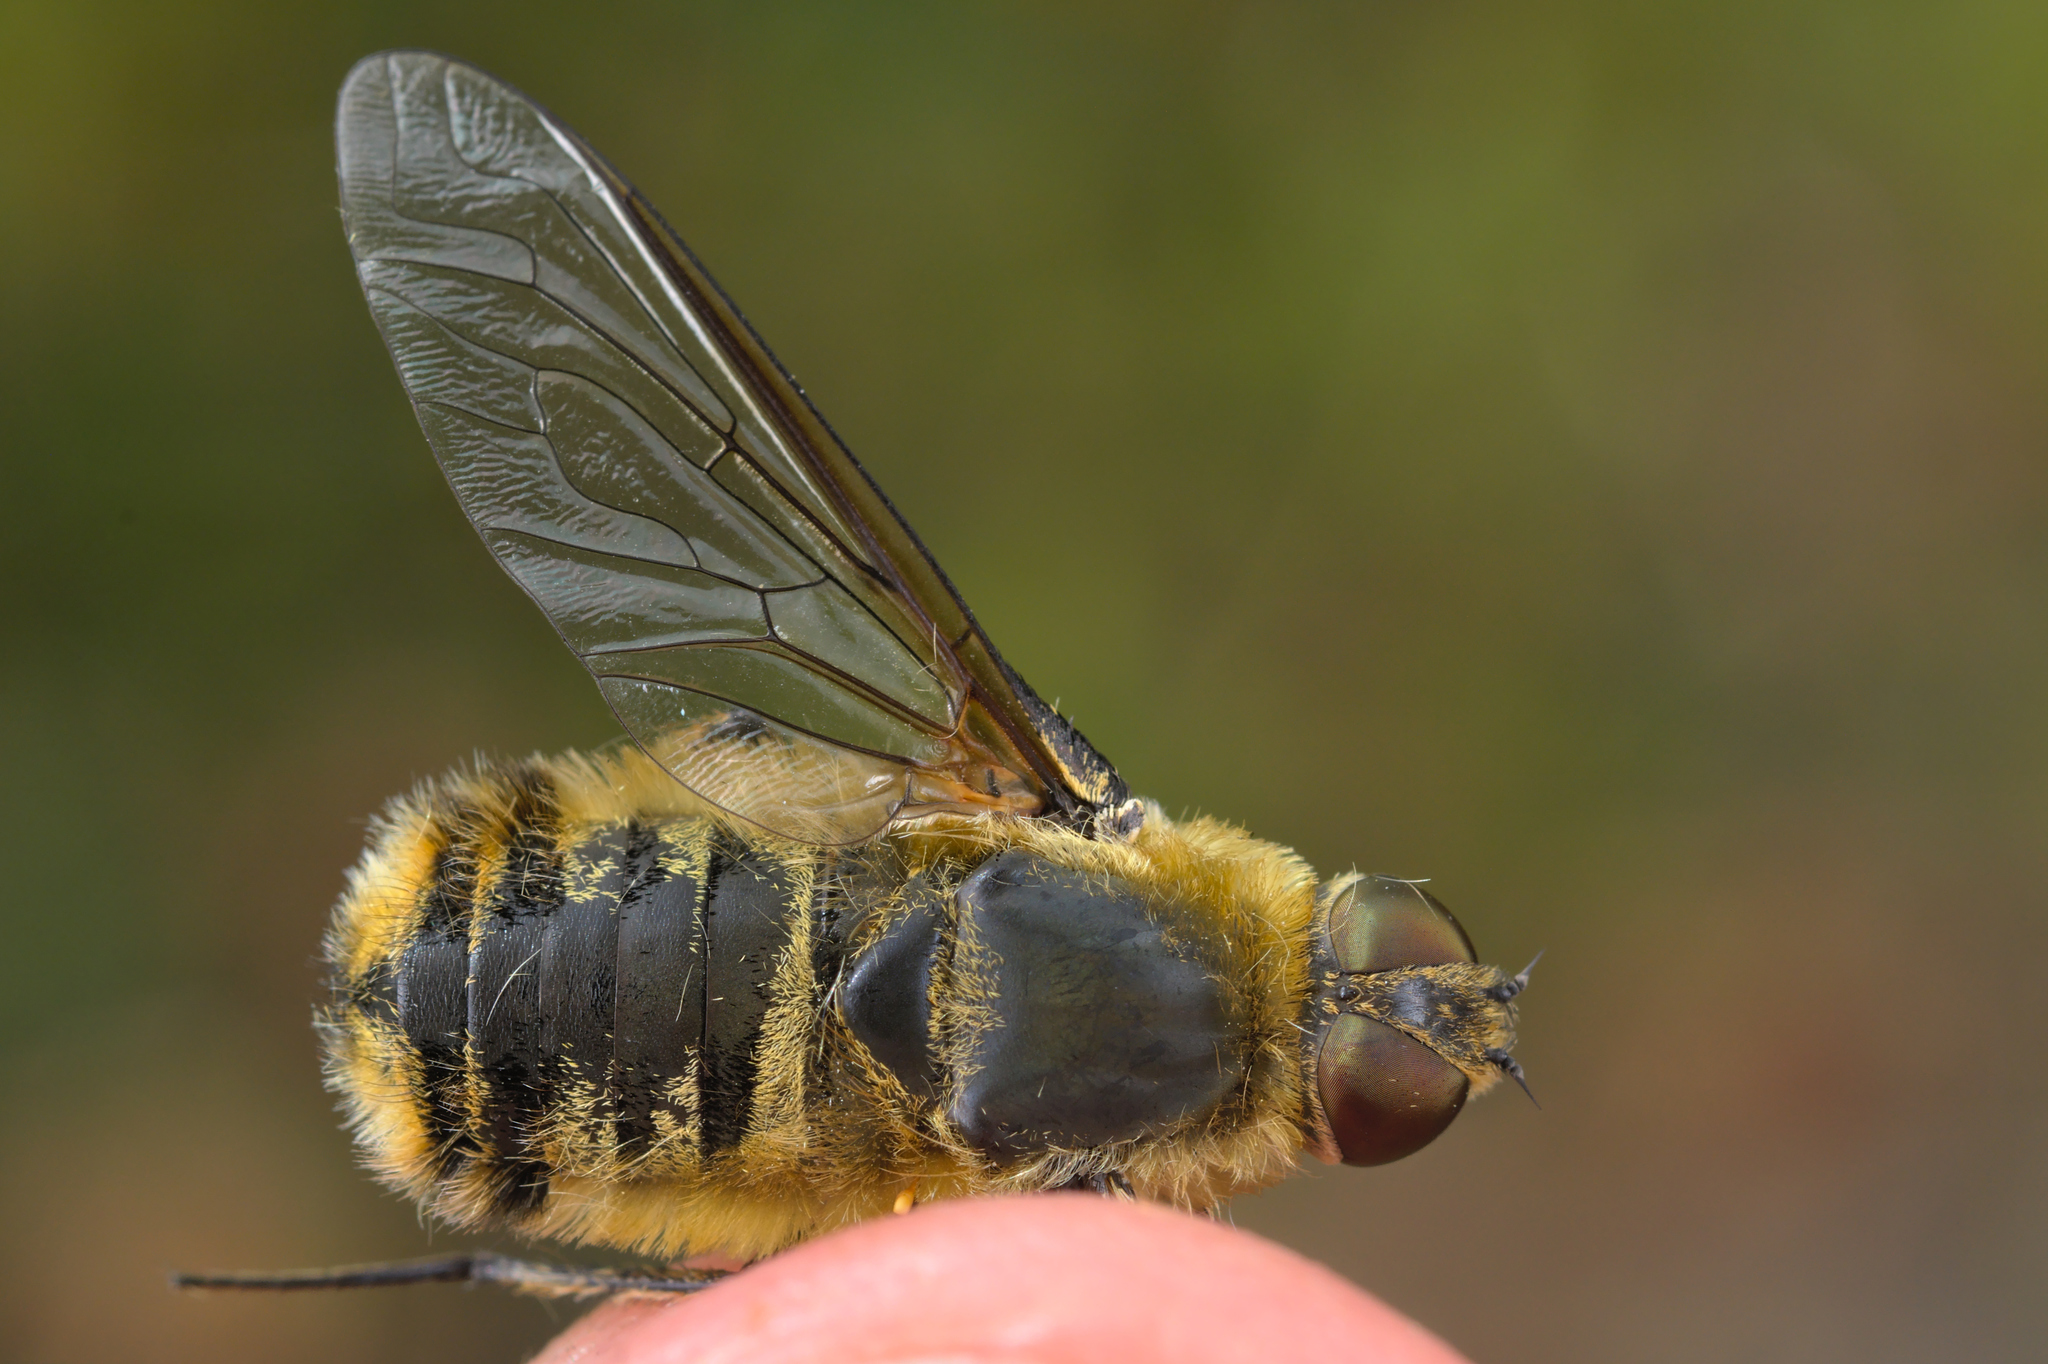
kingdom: Animalia
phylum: Arthropoda
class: Insecta
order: Diptera
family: Bombyliidae
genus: Villa
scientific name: Villa hottentotta
